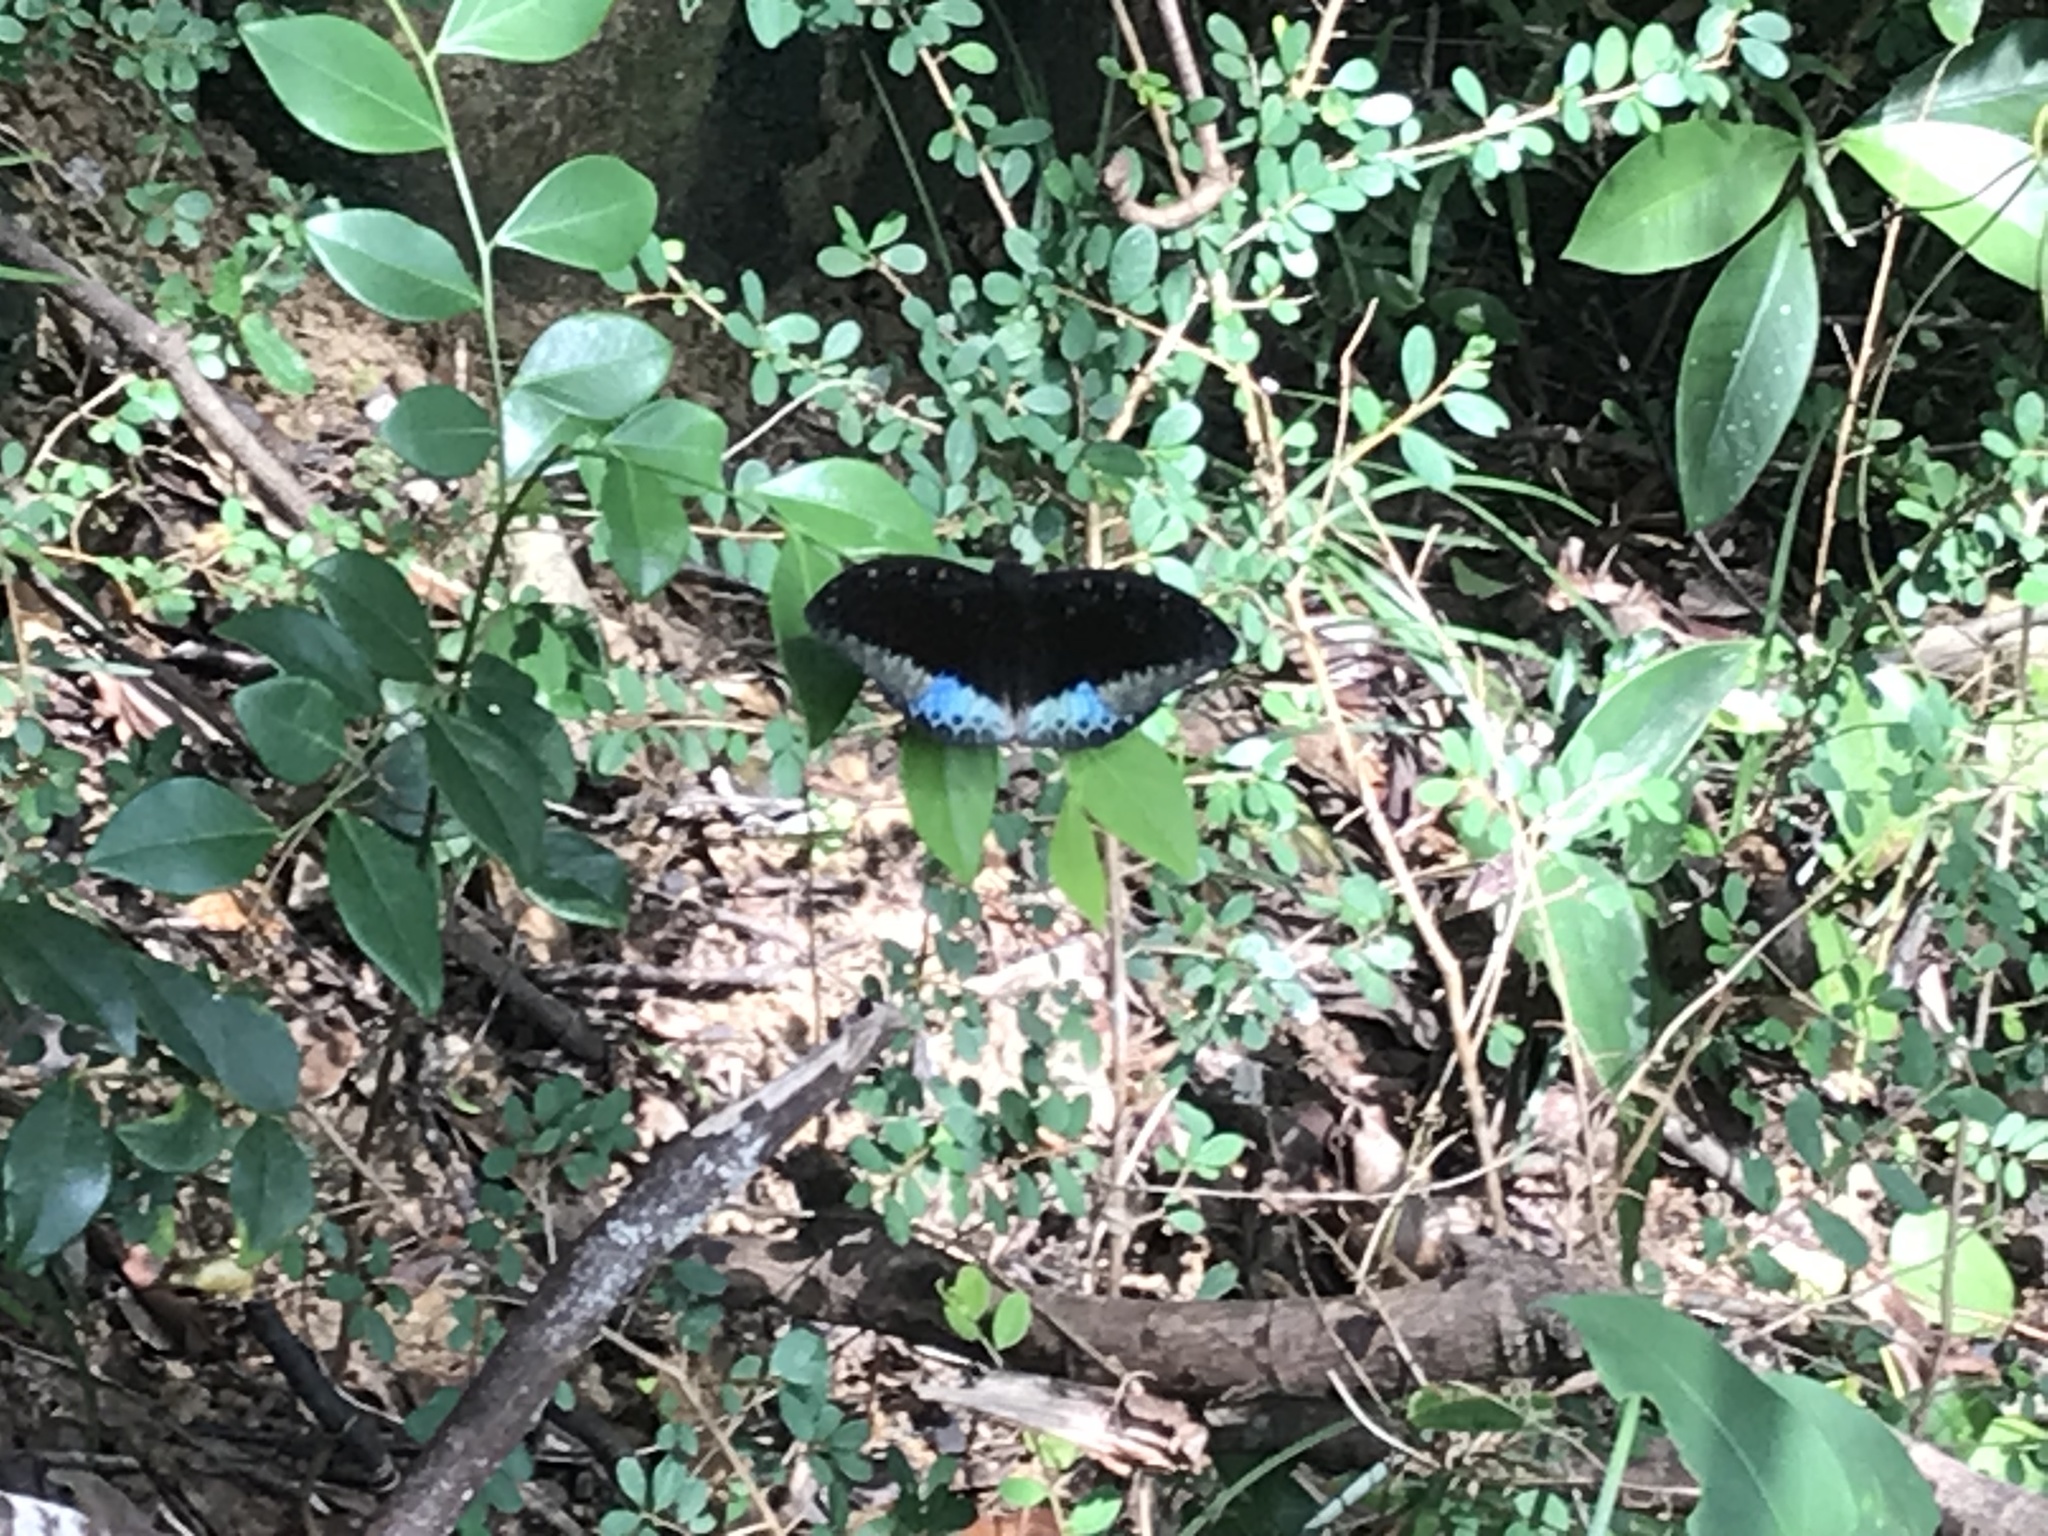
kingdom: Animalia
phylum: Arthropoda
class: Insecta
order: Lepidoptera
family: Nymphalidae
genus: Lexias
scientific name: Lexias pardalis
